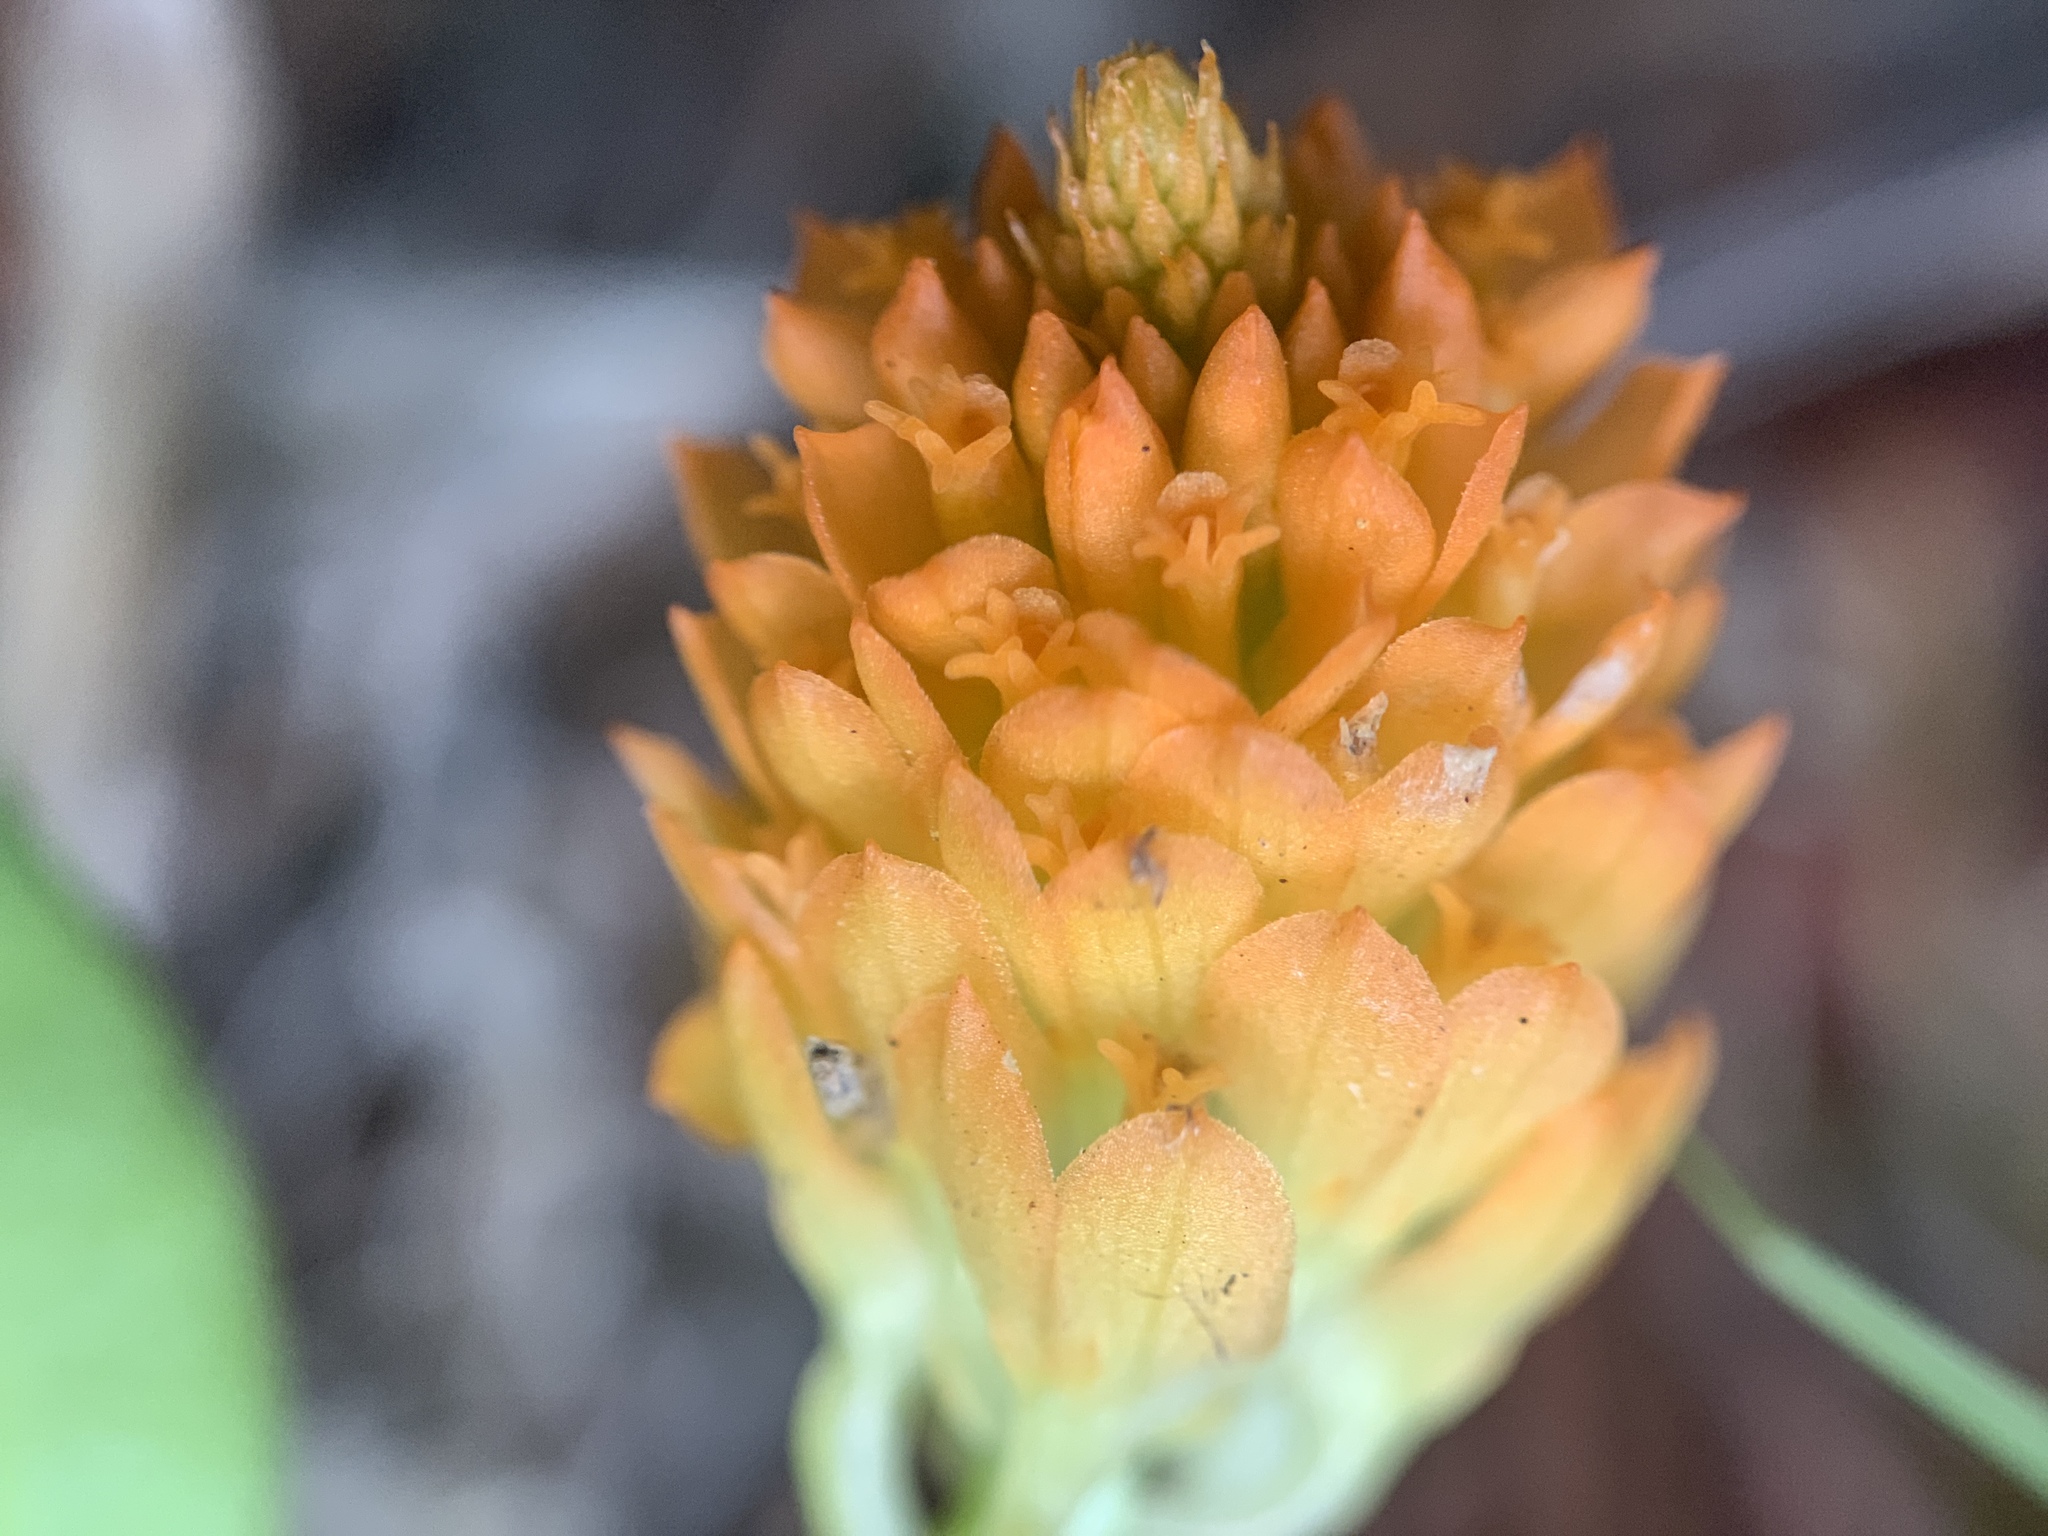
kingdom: Plantae
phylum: Tracheophyta
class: Magnoliopsida
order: Fabales
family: Polygalaceae
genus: Polygala
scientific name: Polygala lutea
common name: Orange milkwort
